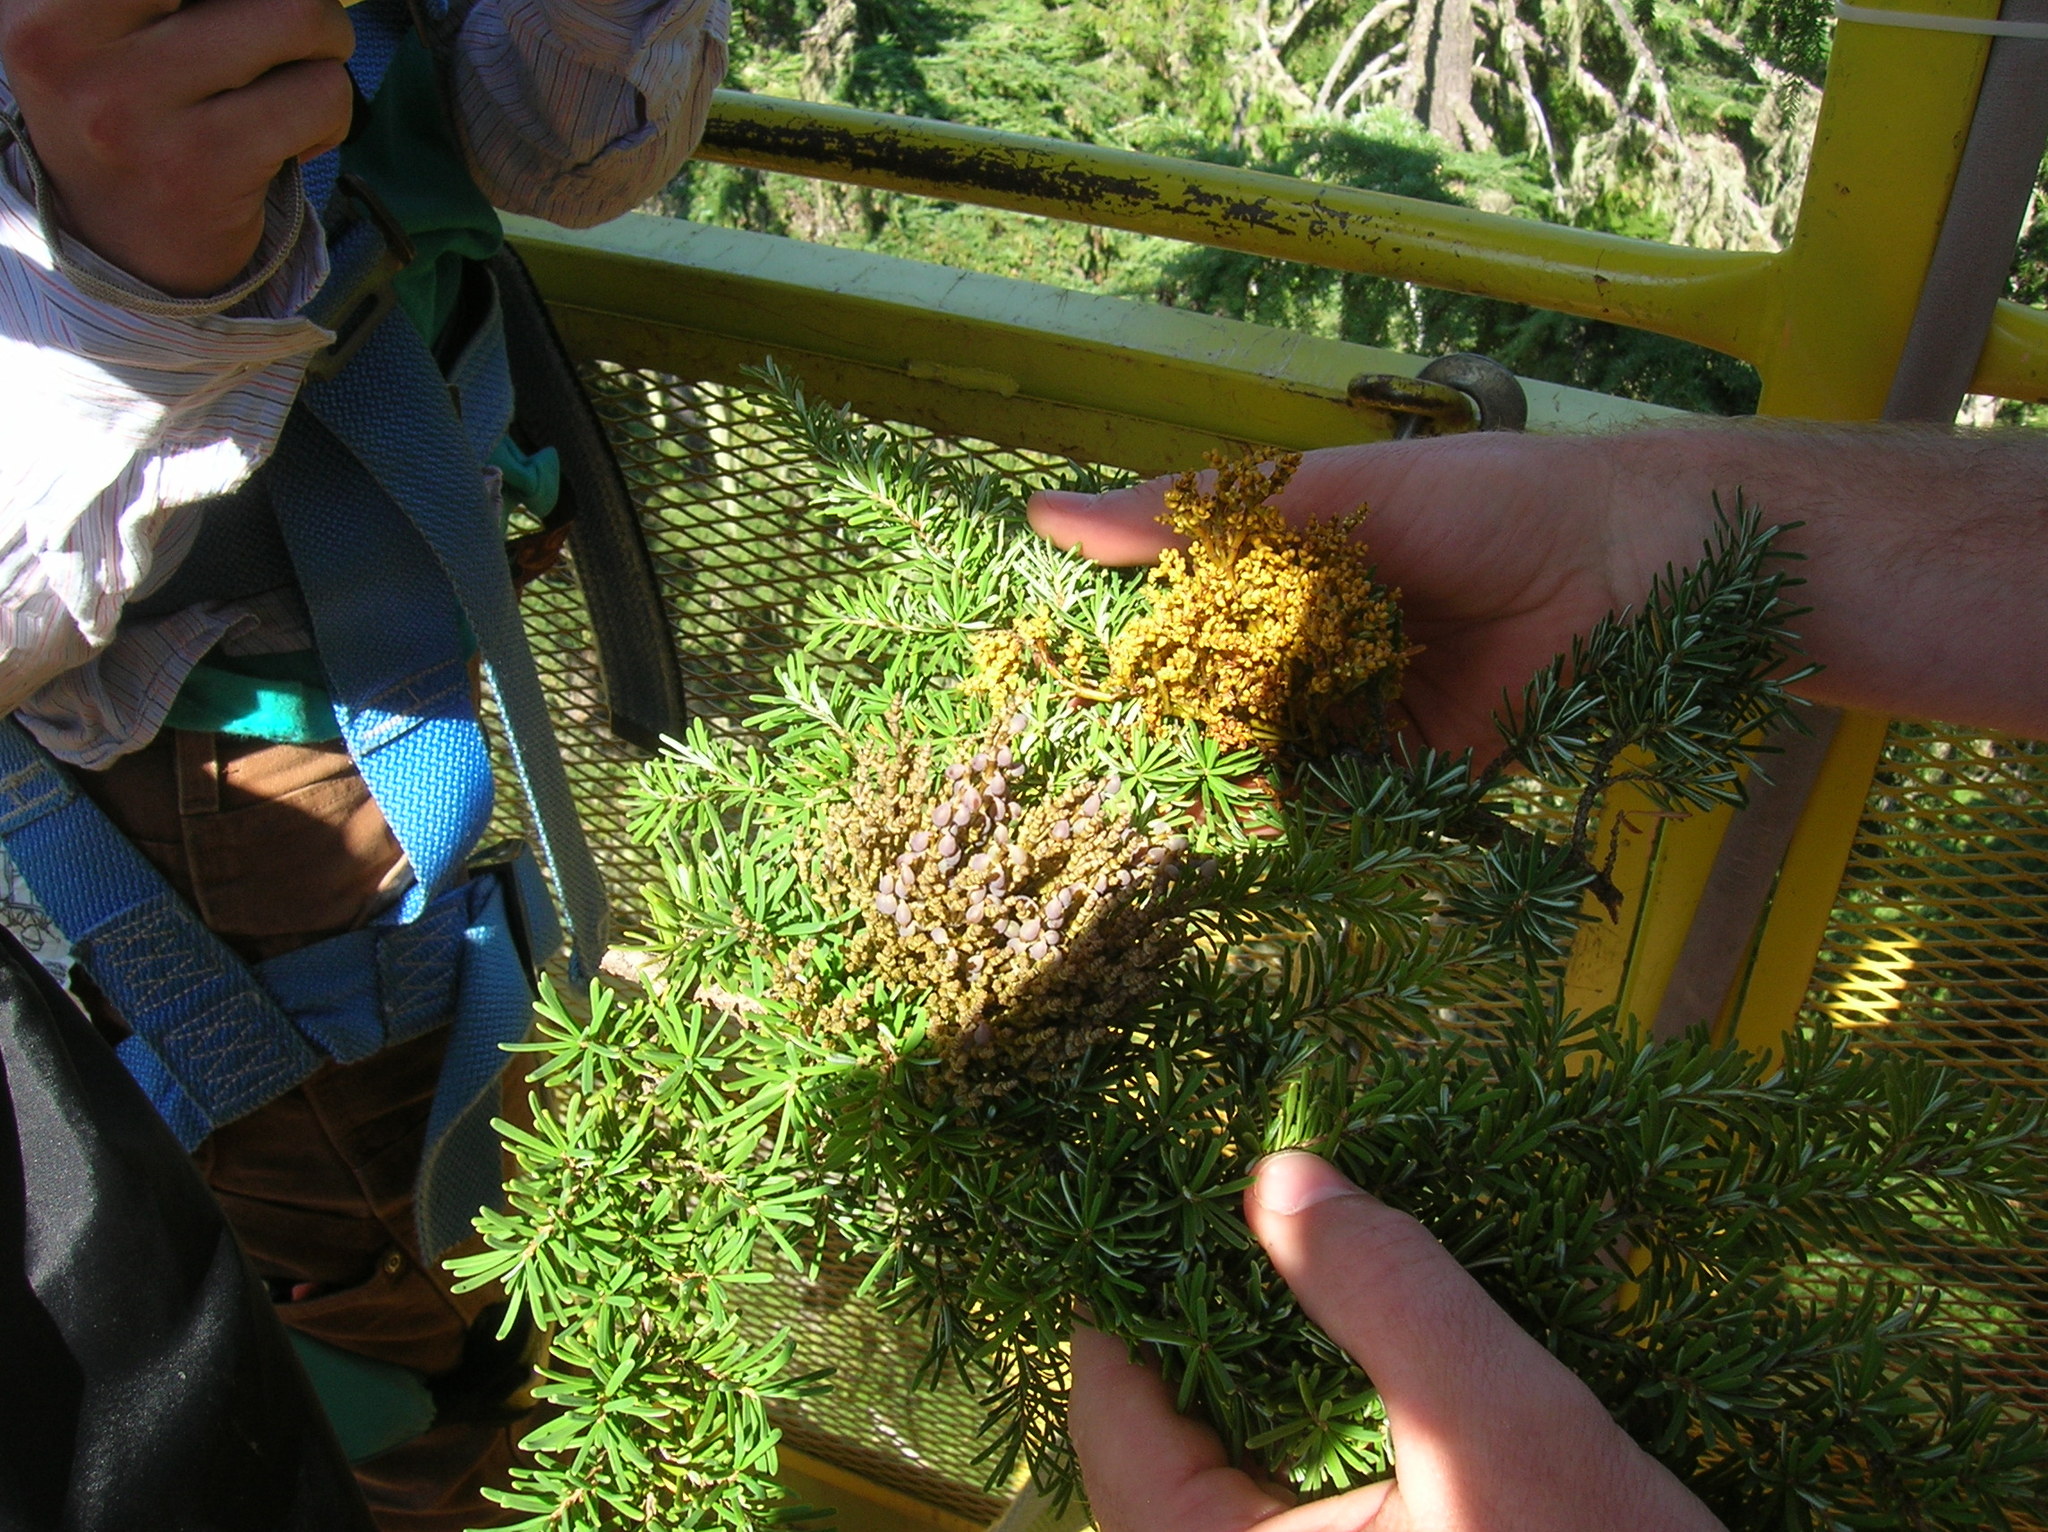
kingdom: Plantae
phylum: Tracheophyta
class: Pinopsida
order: Pinales
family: Pinaceae
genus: Tsuga
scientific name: Tsuga heterophylla
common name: Western hemlock
